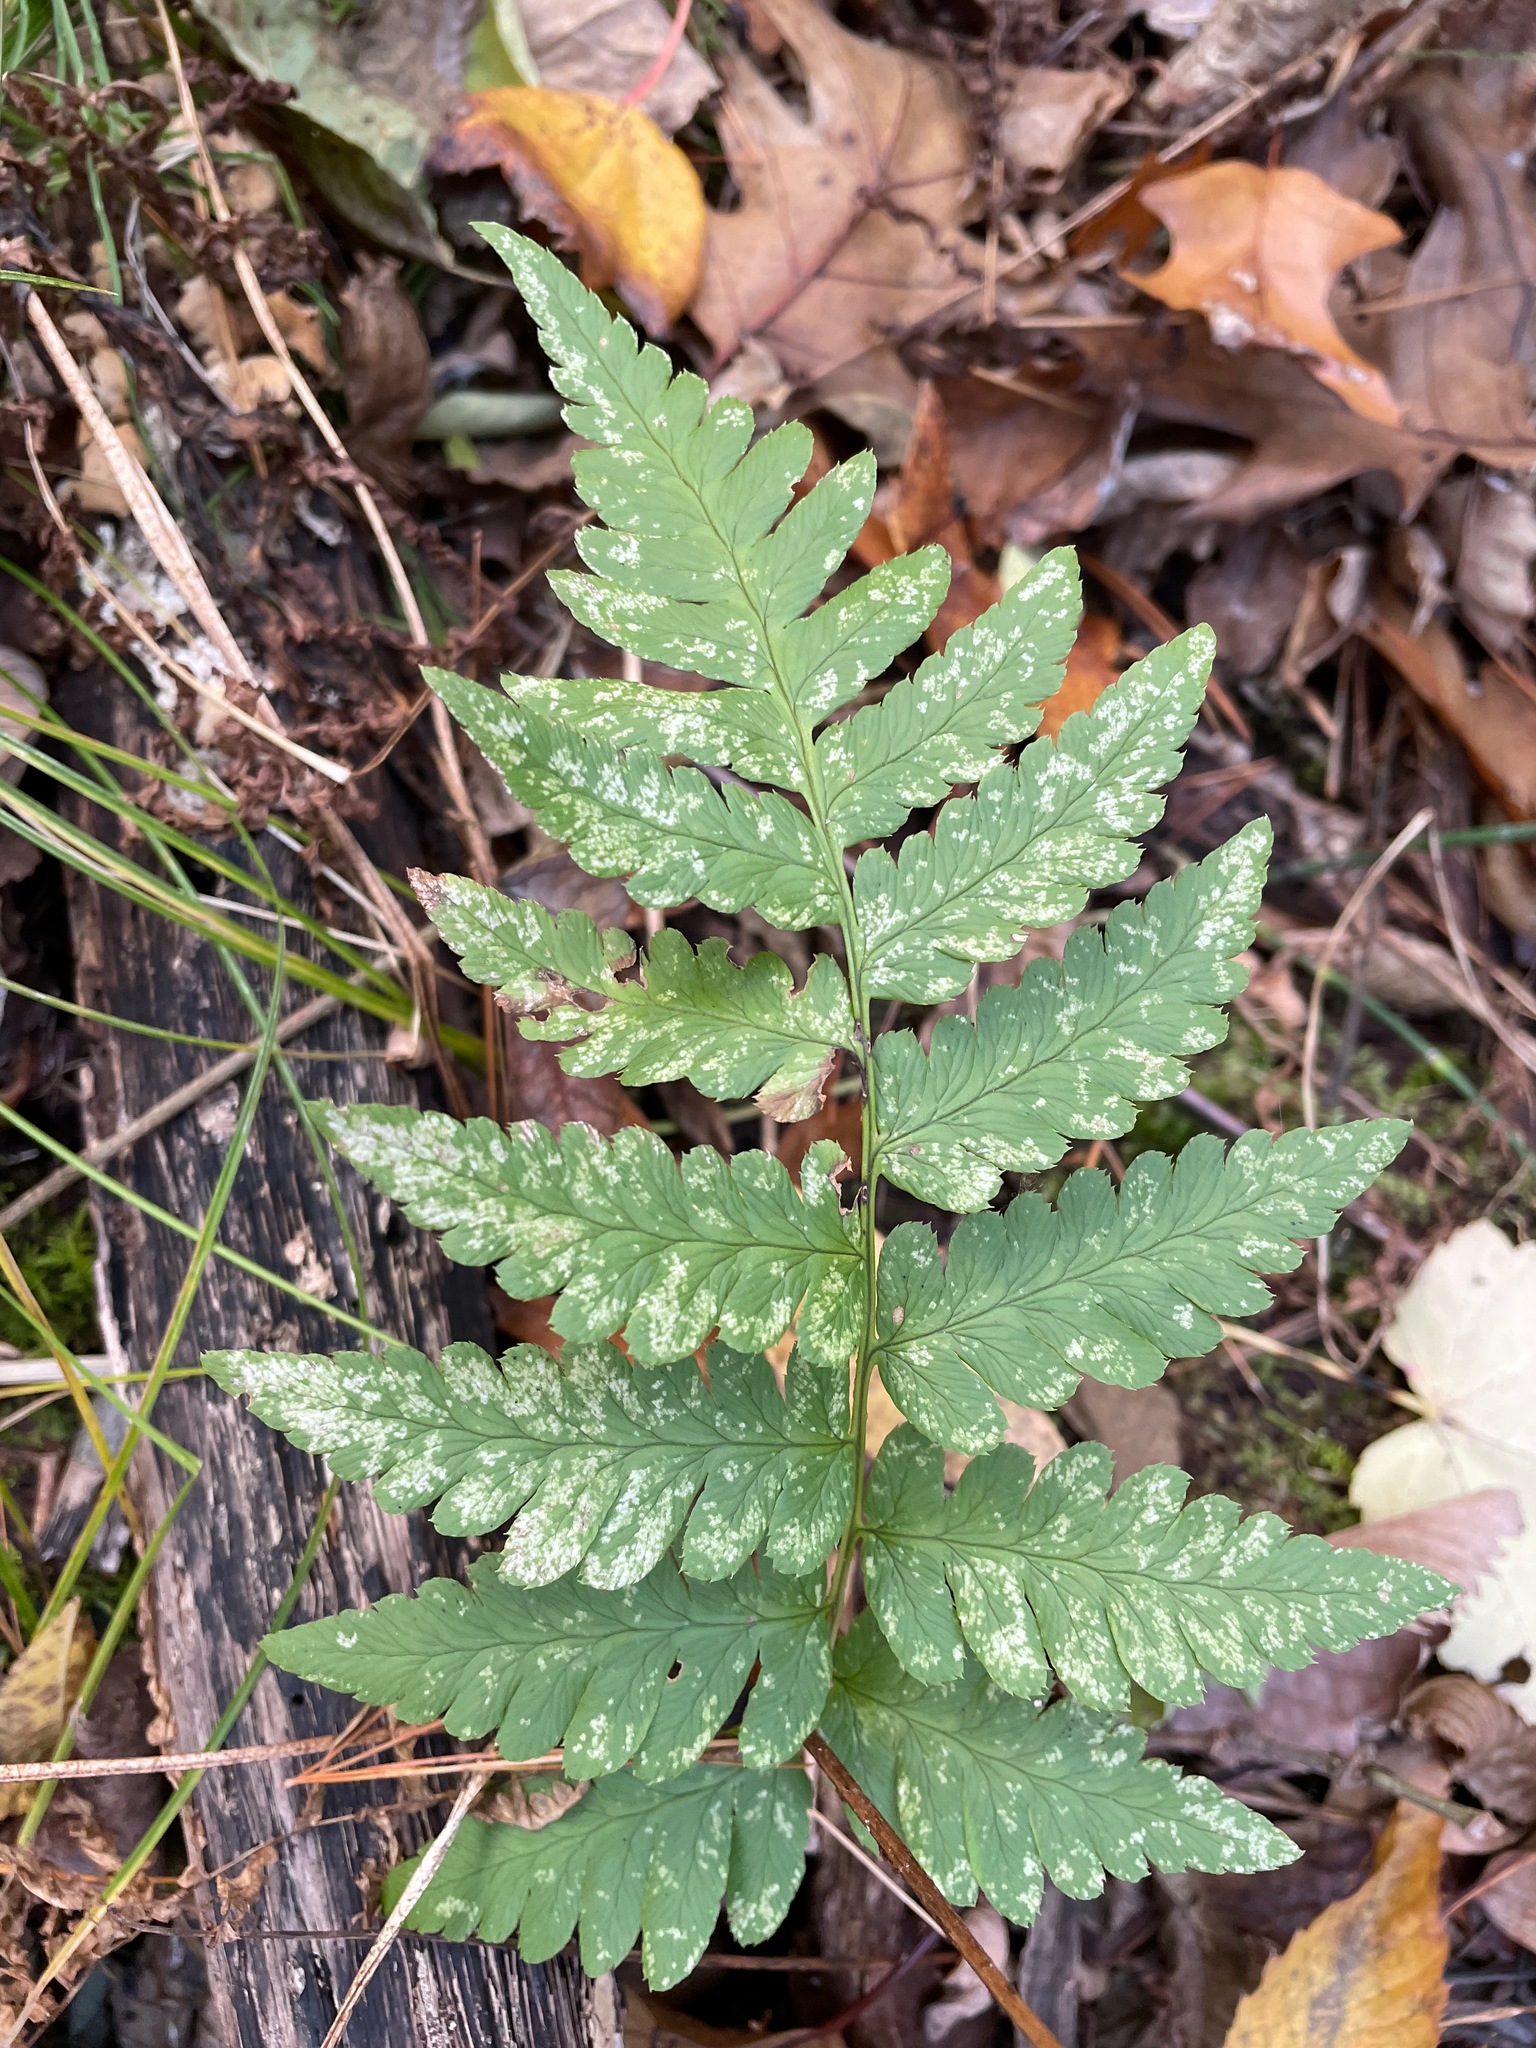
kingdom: Plantae
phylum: Tracheophyta
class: Polypodiopsida
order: Polypodiales
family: Dryopteridaceae
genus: Dryopteris
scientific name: Dryopteris cristata
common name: Crested wood fern
